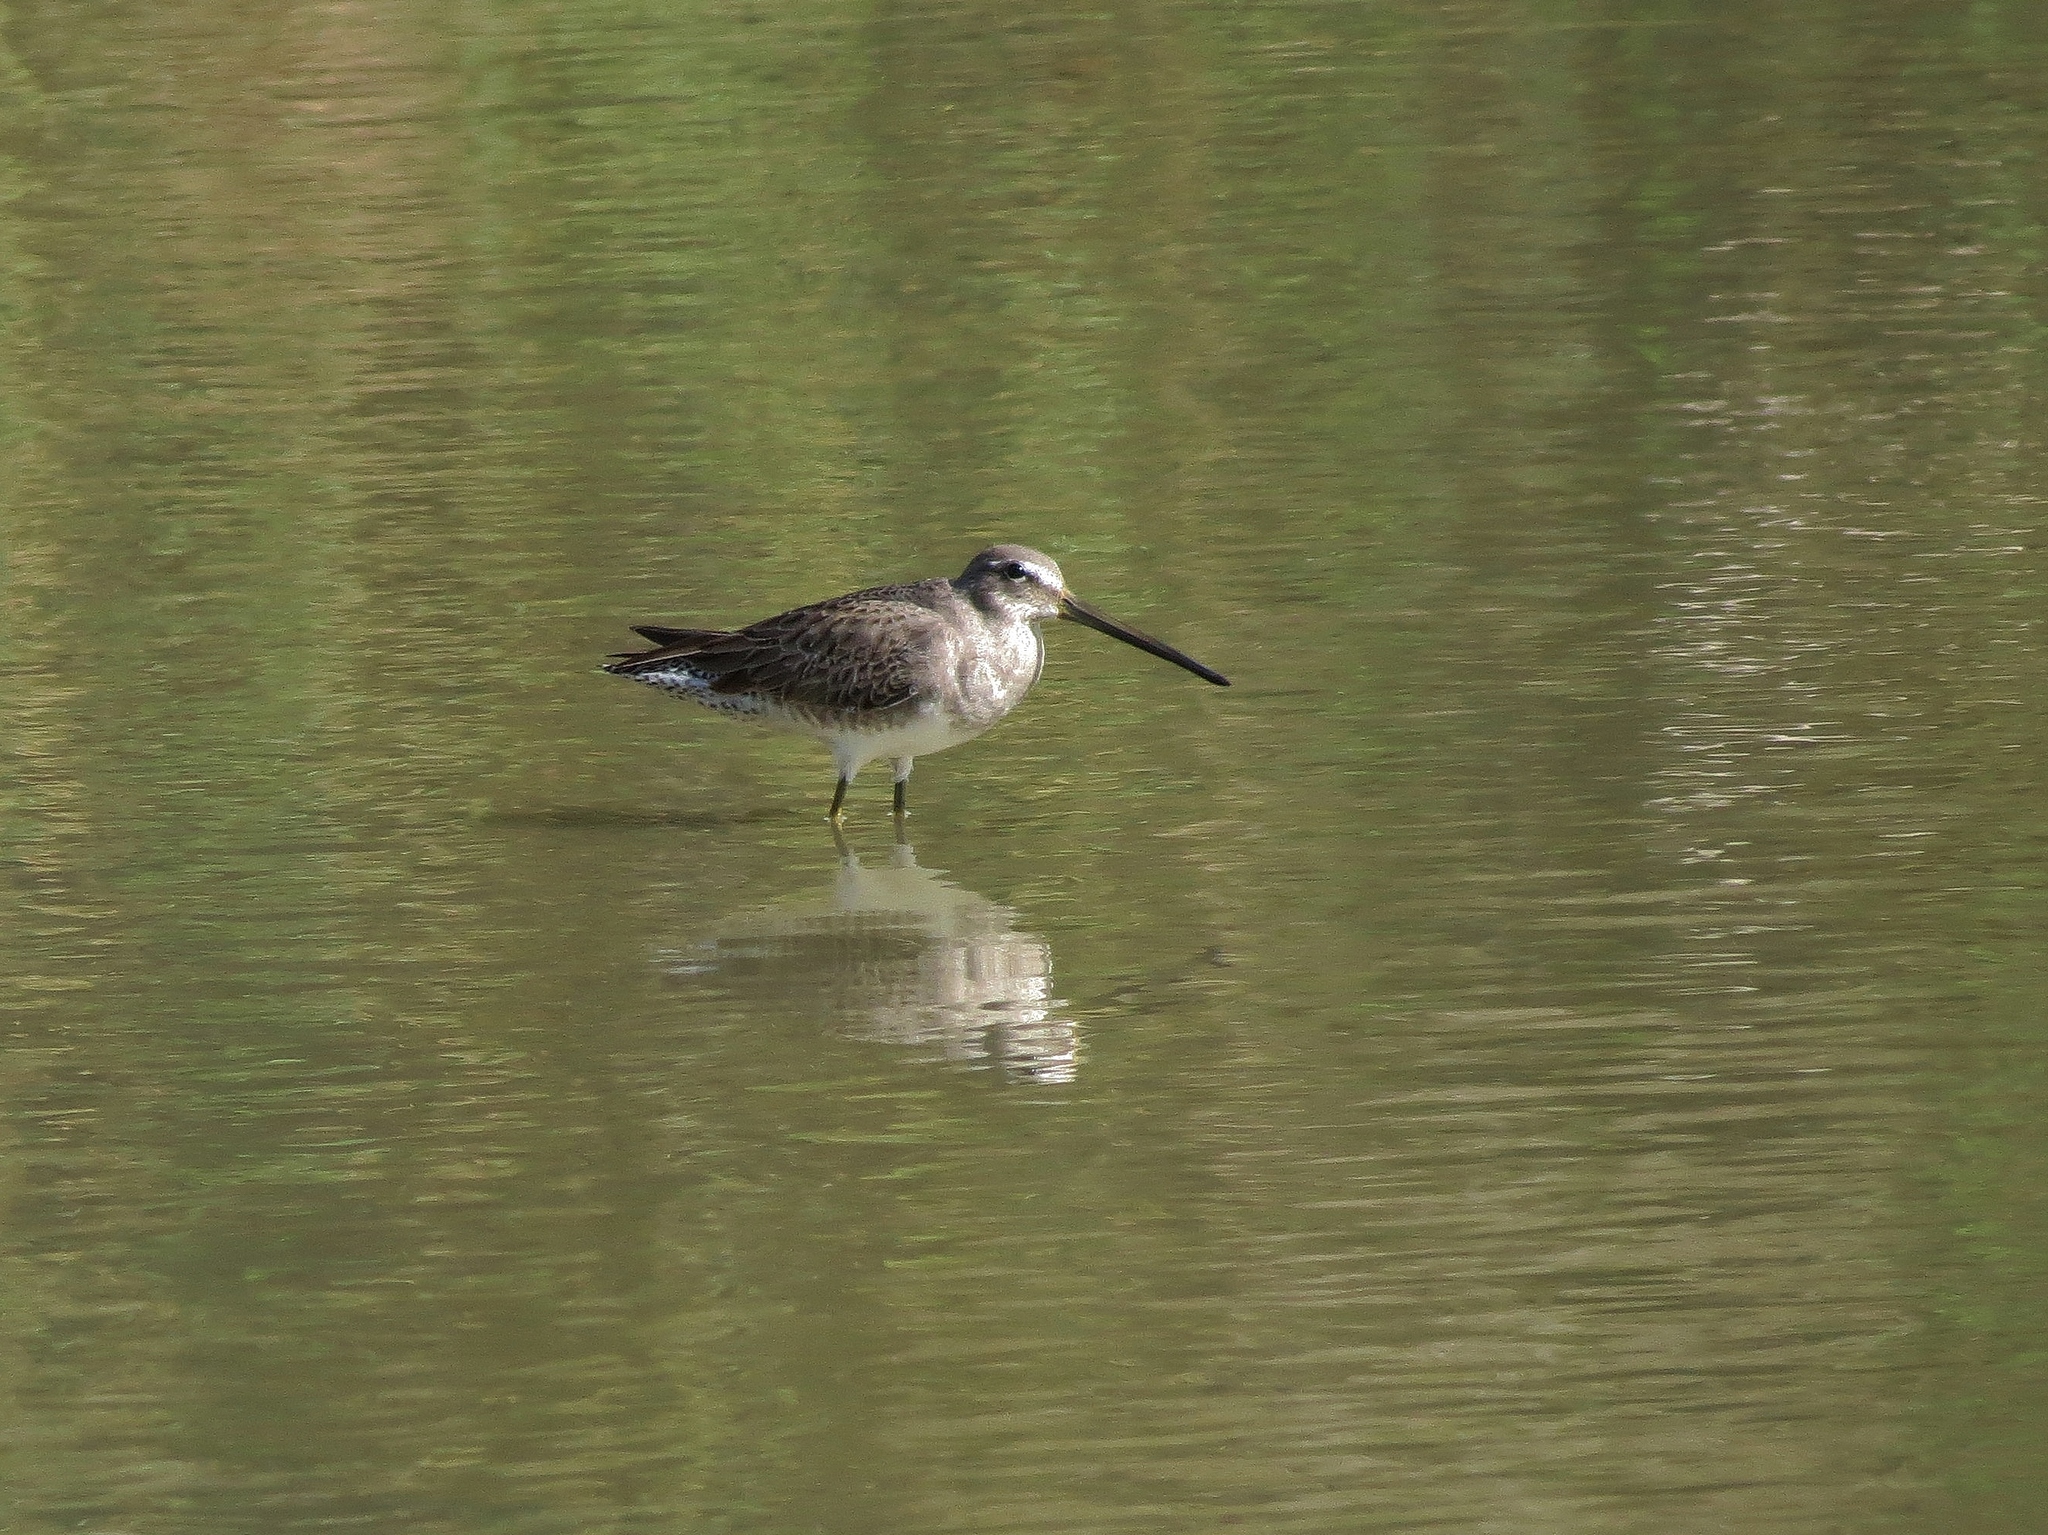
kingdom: Animalia
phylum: Chordata
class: Aves
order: Charadriiformes
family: Scolopacidae
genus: Limnodromus
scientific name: Limnodromus scolopaceus
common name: Long-billed dowitcher
